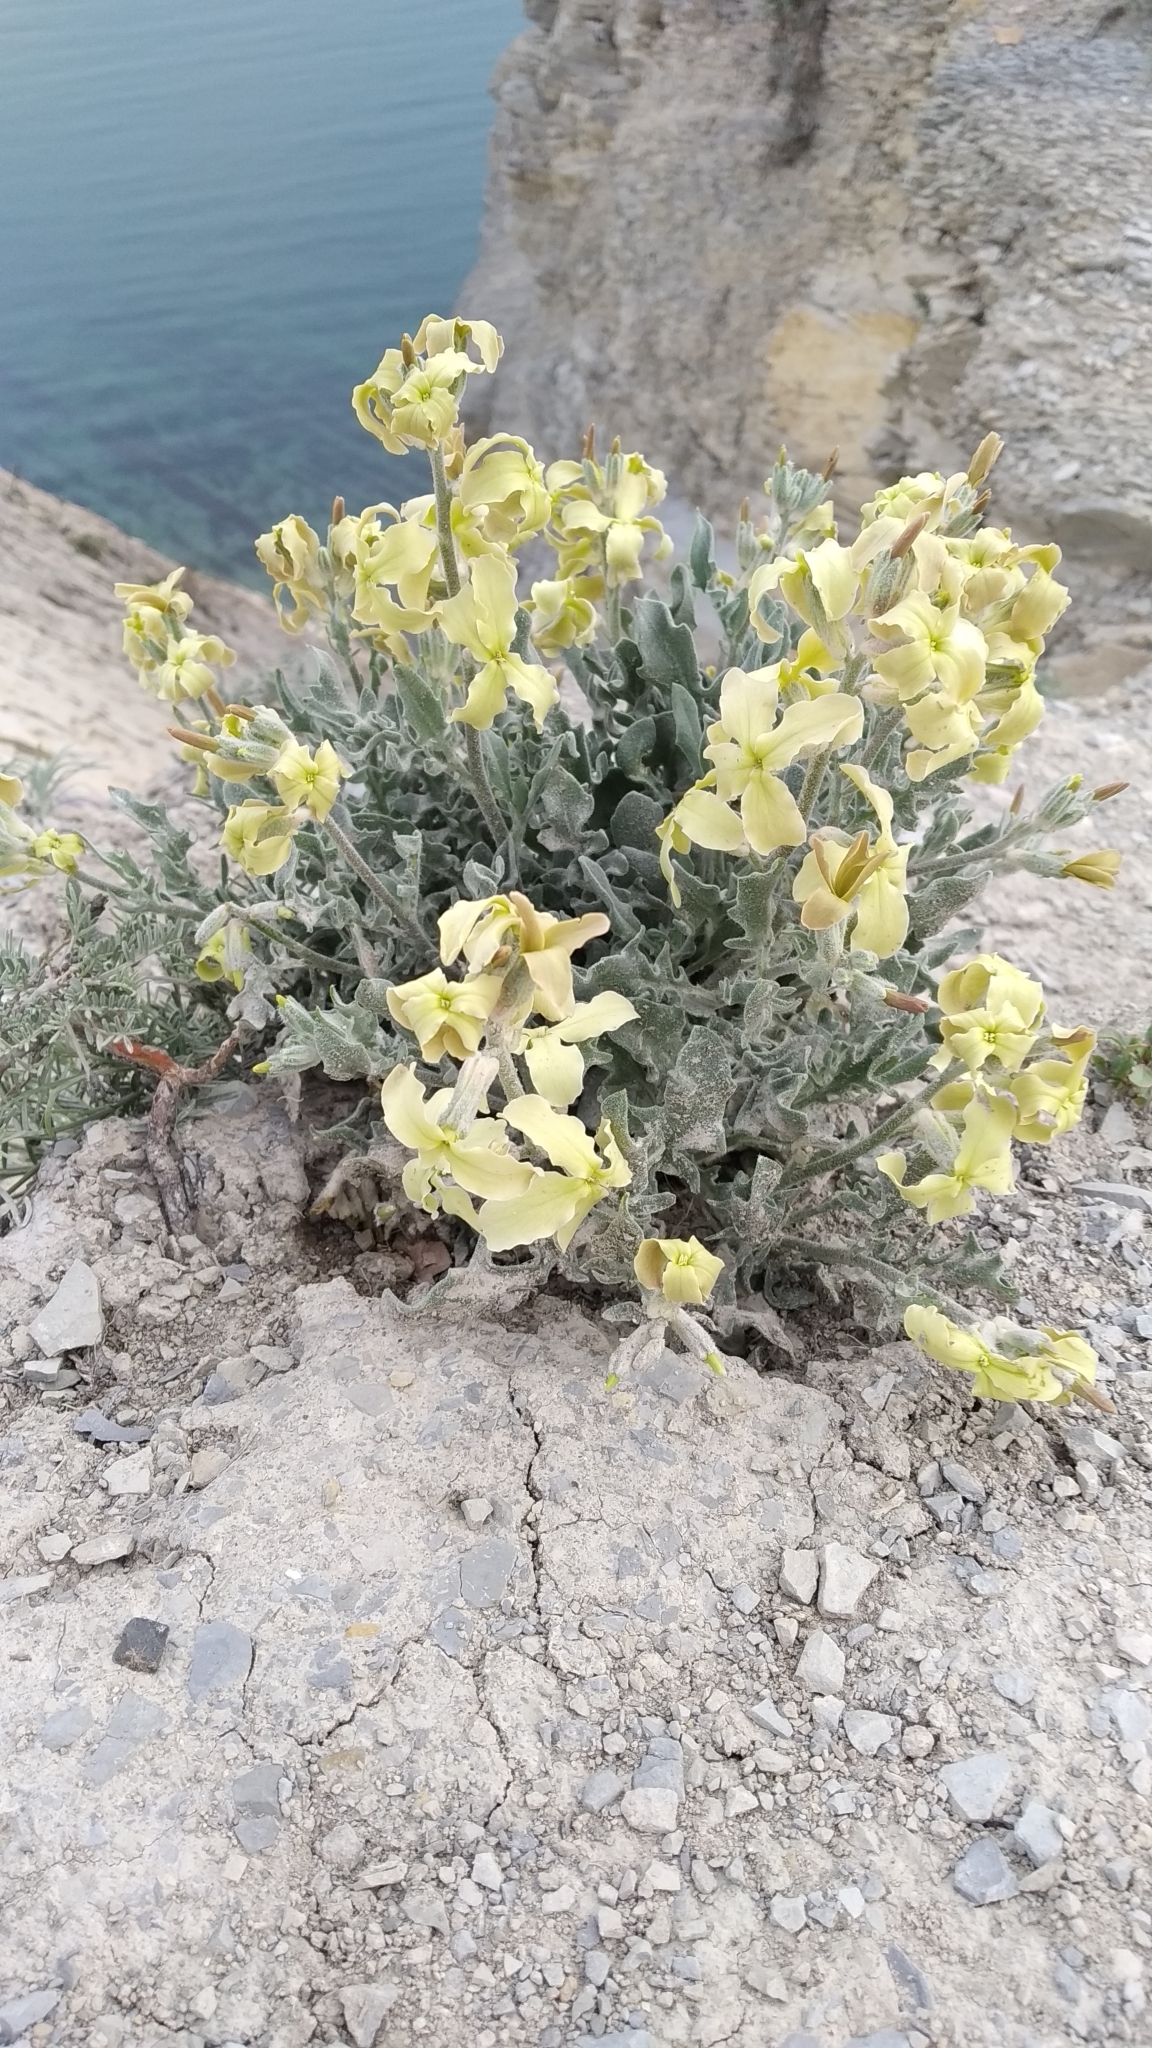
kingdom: Plantae
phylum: Tracheophyta
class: Magnoliopsida
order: Brassicales
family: Brassicaceae
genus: Matthiola
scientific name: Matthiola odoratissima
